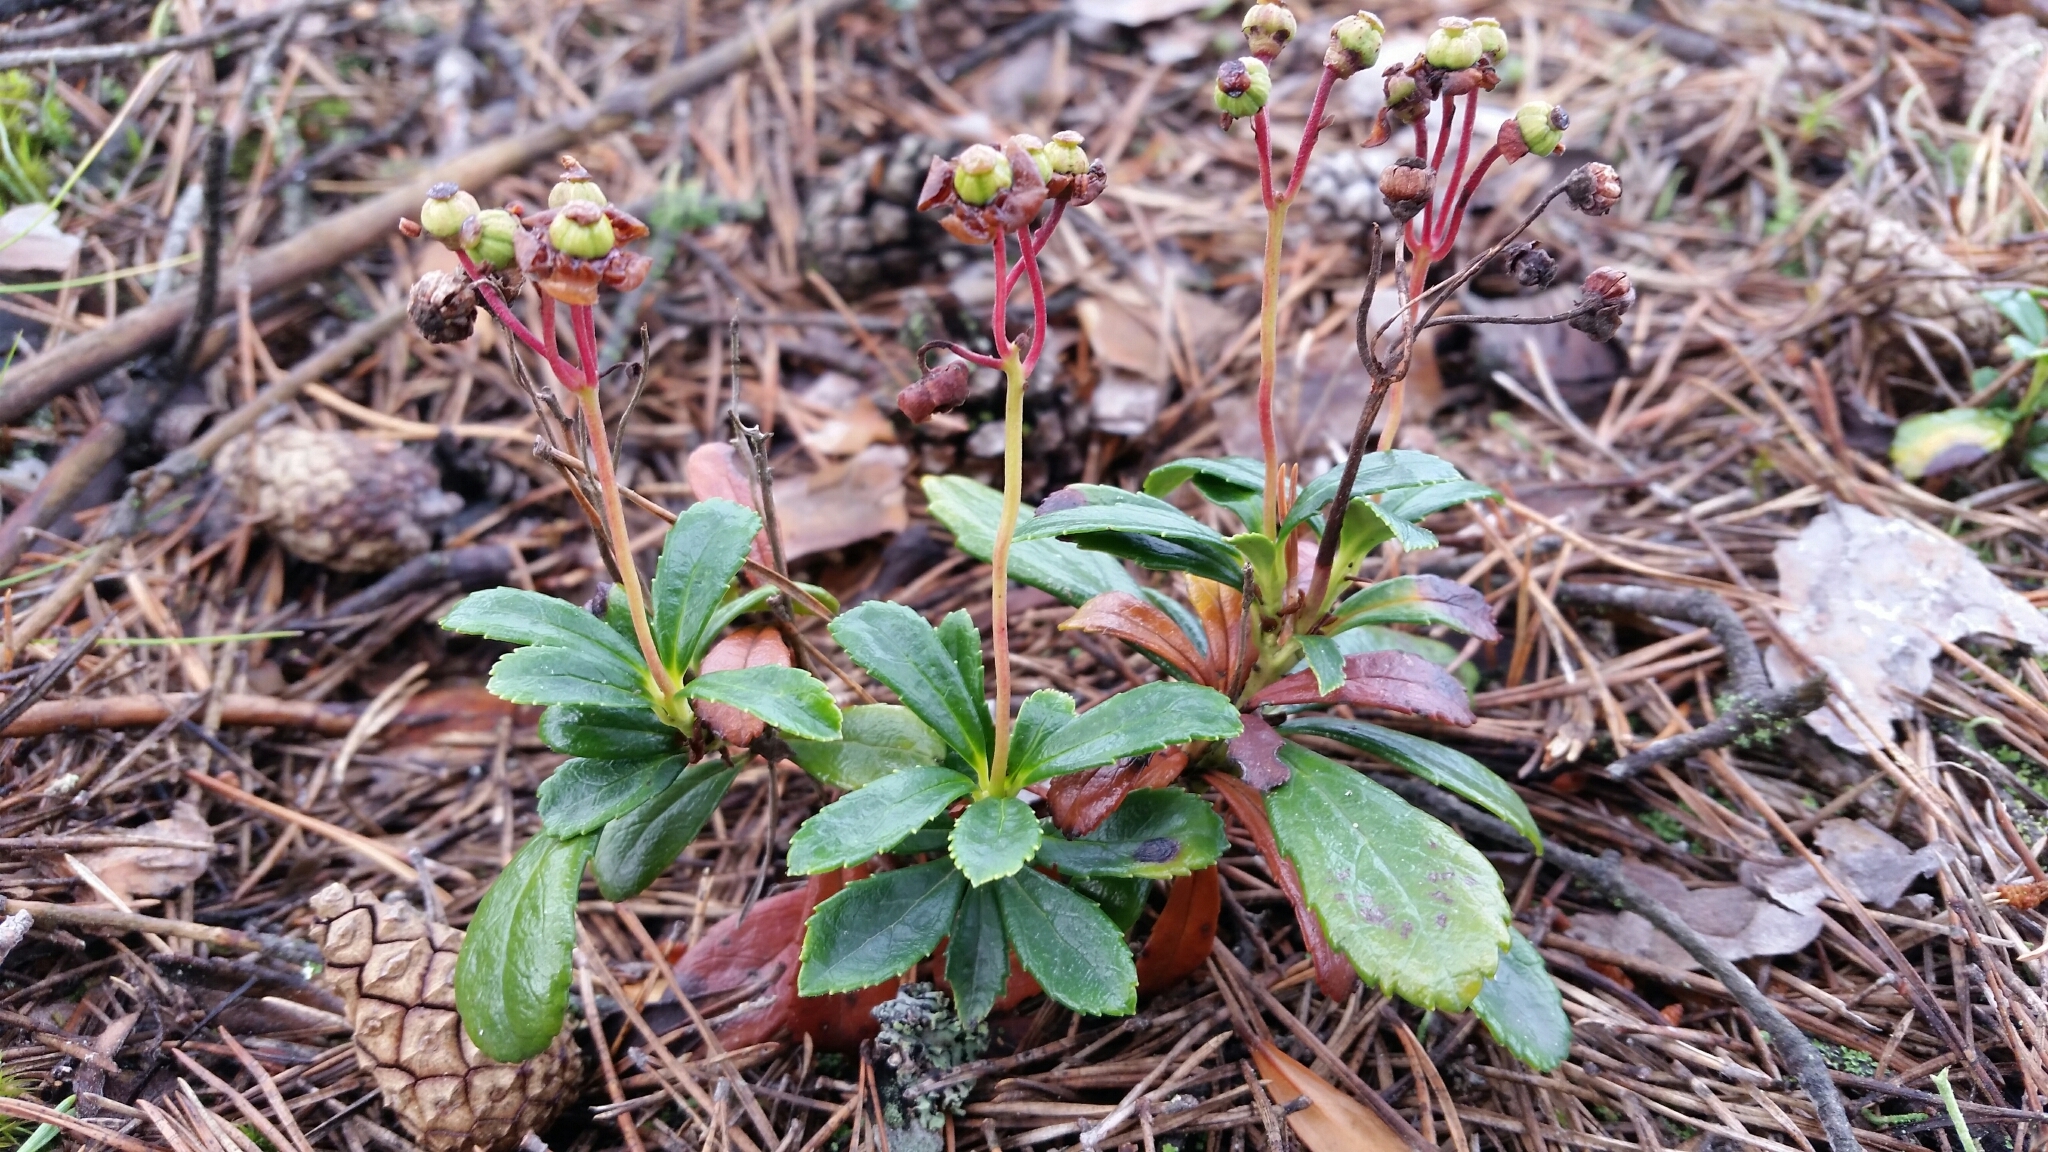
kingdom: Plantae
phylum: Tracheophyta
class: Magnoliopsida
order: Ericales
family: Ericaceae
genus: Chimaphila
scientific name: Chimaphila umbellata
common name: Pipsissewa
